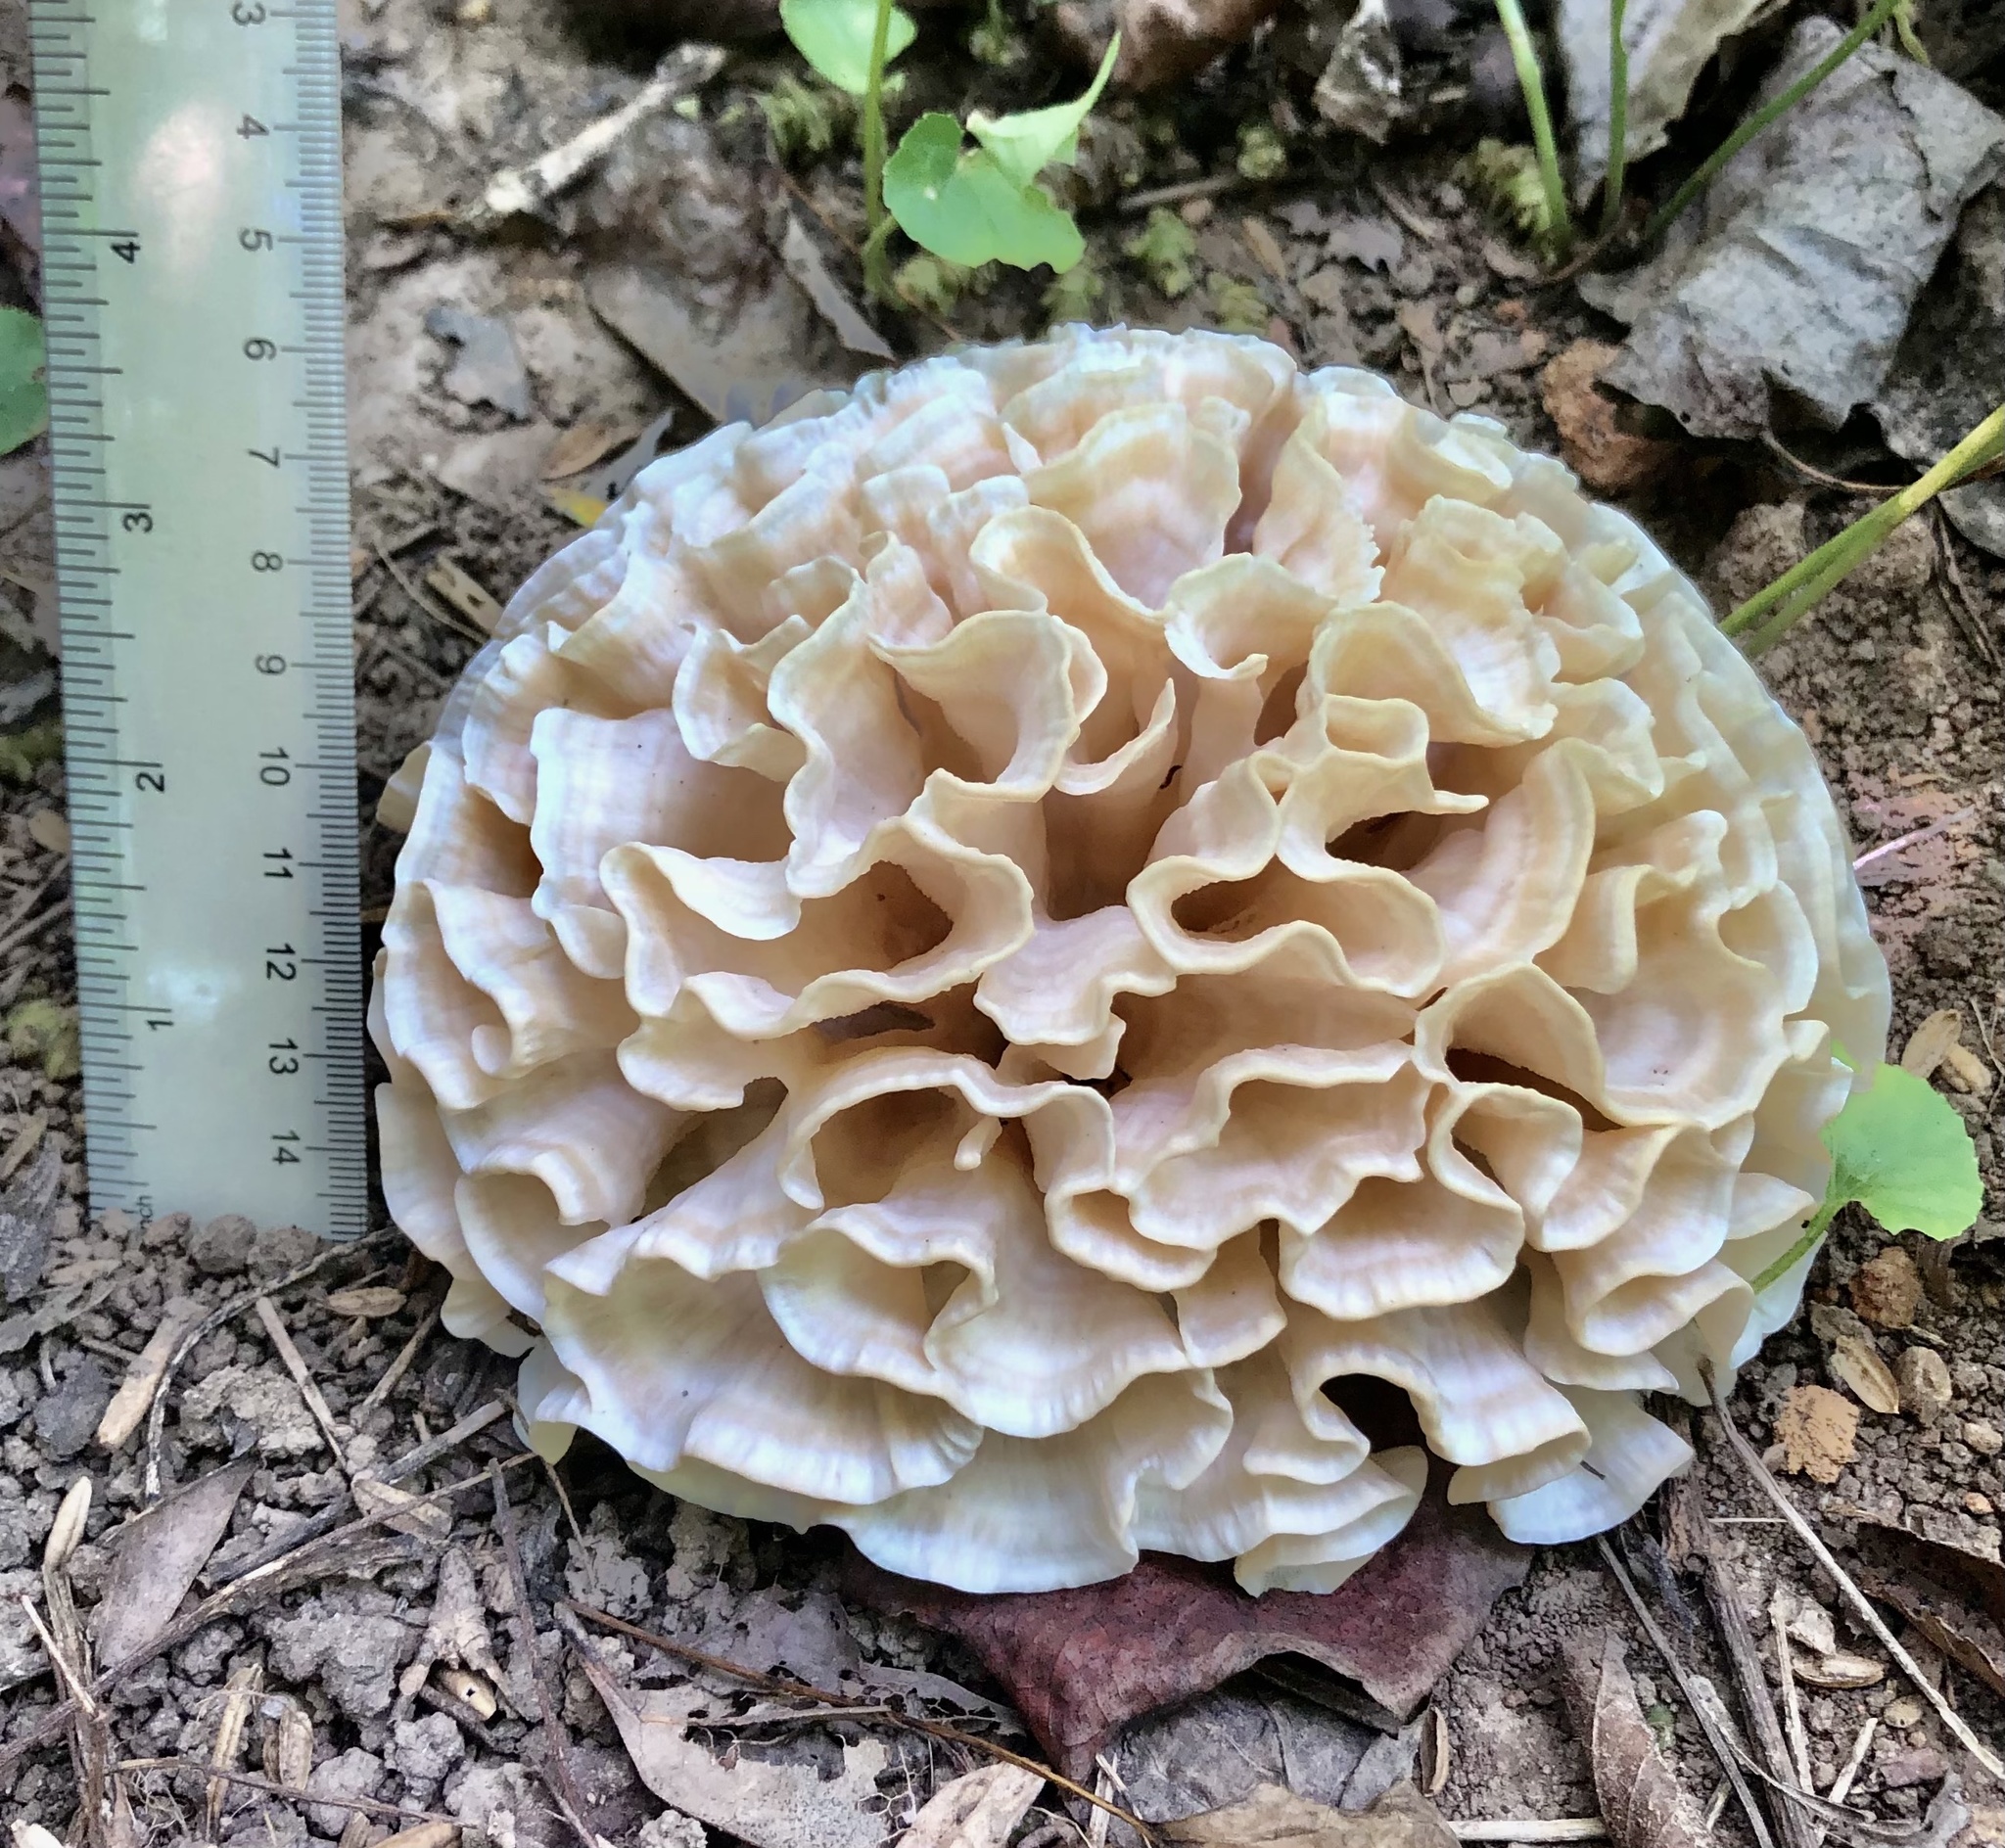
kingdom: Fungi
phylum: Basidiomycota
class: Agaricomycetes
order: Polyporales
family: Sparassidaceae
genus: Sparassis
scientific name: Sparassis spathulata
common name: Eastern cauliflower mushroom
